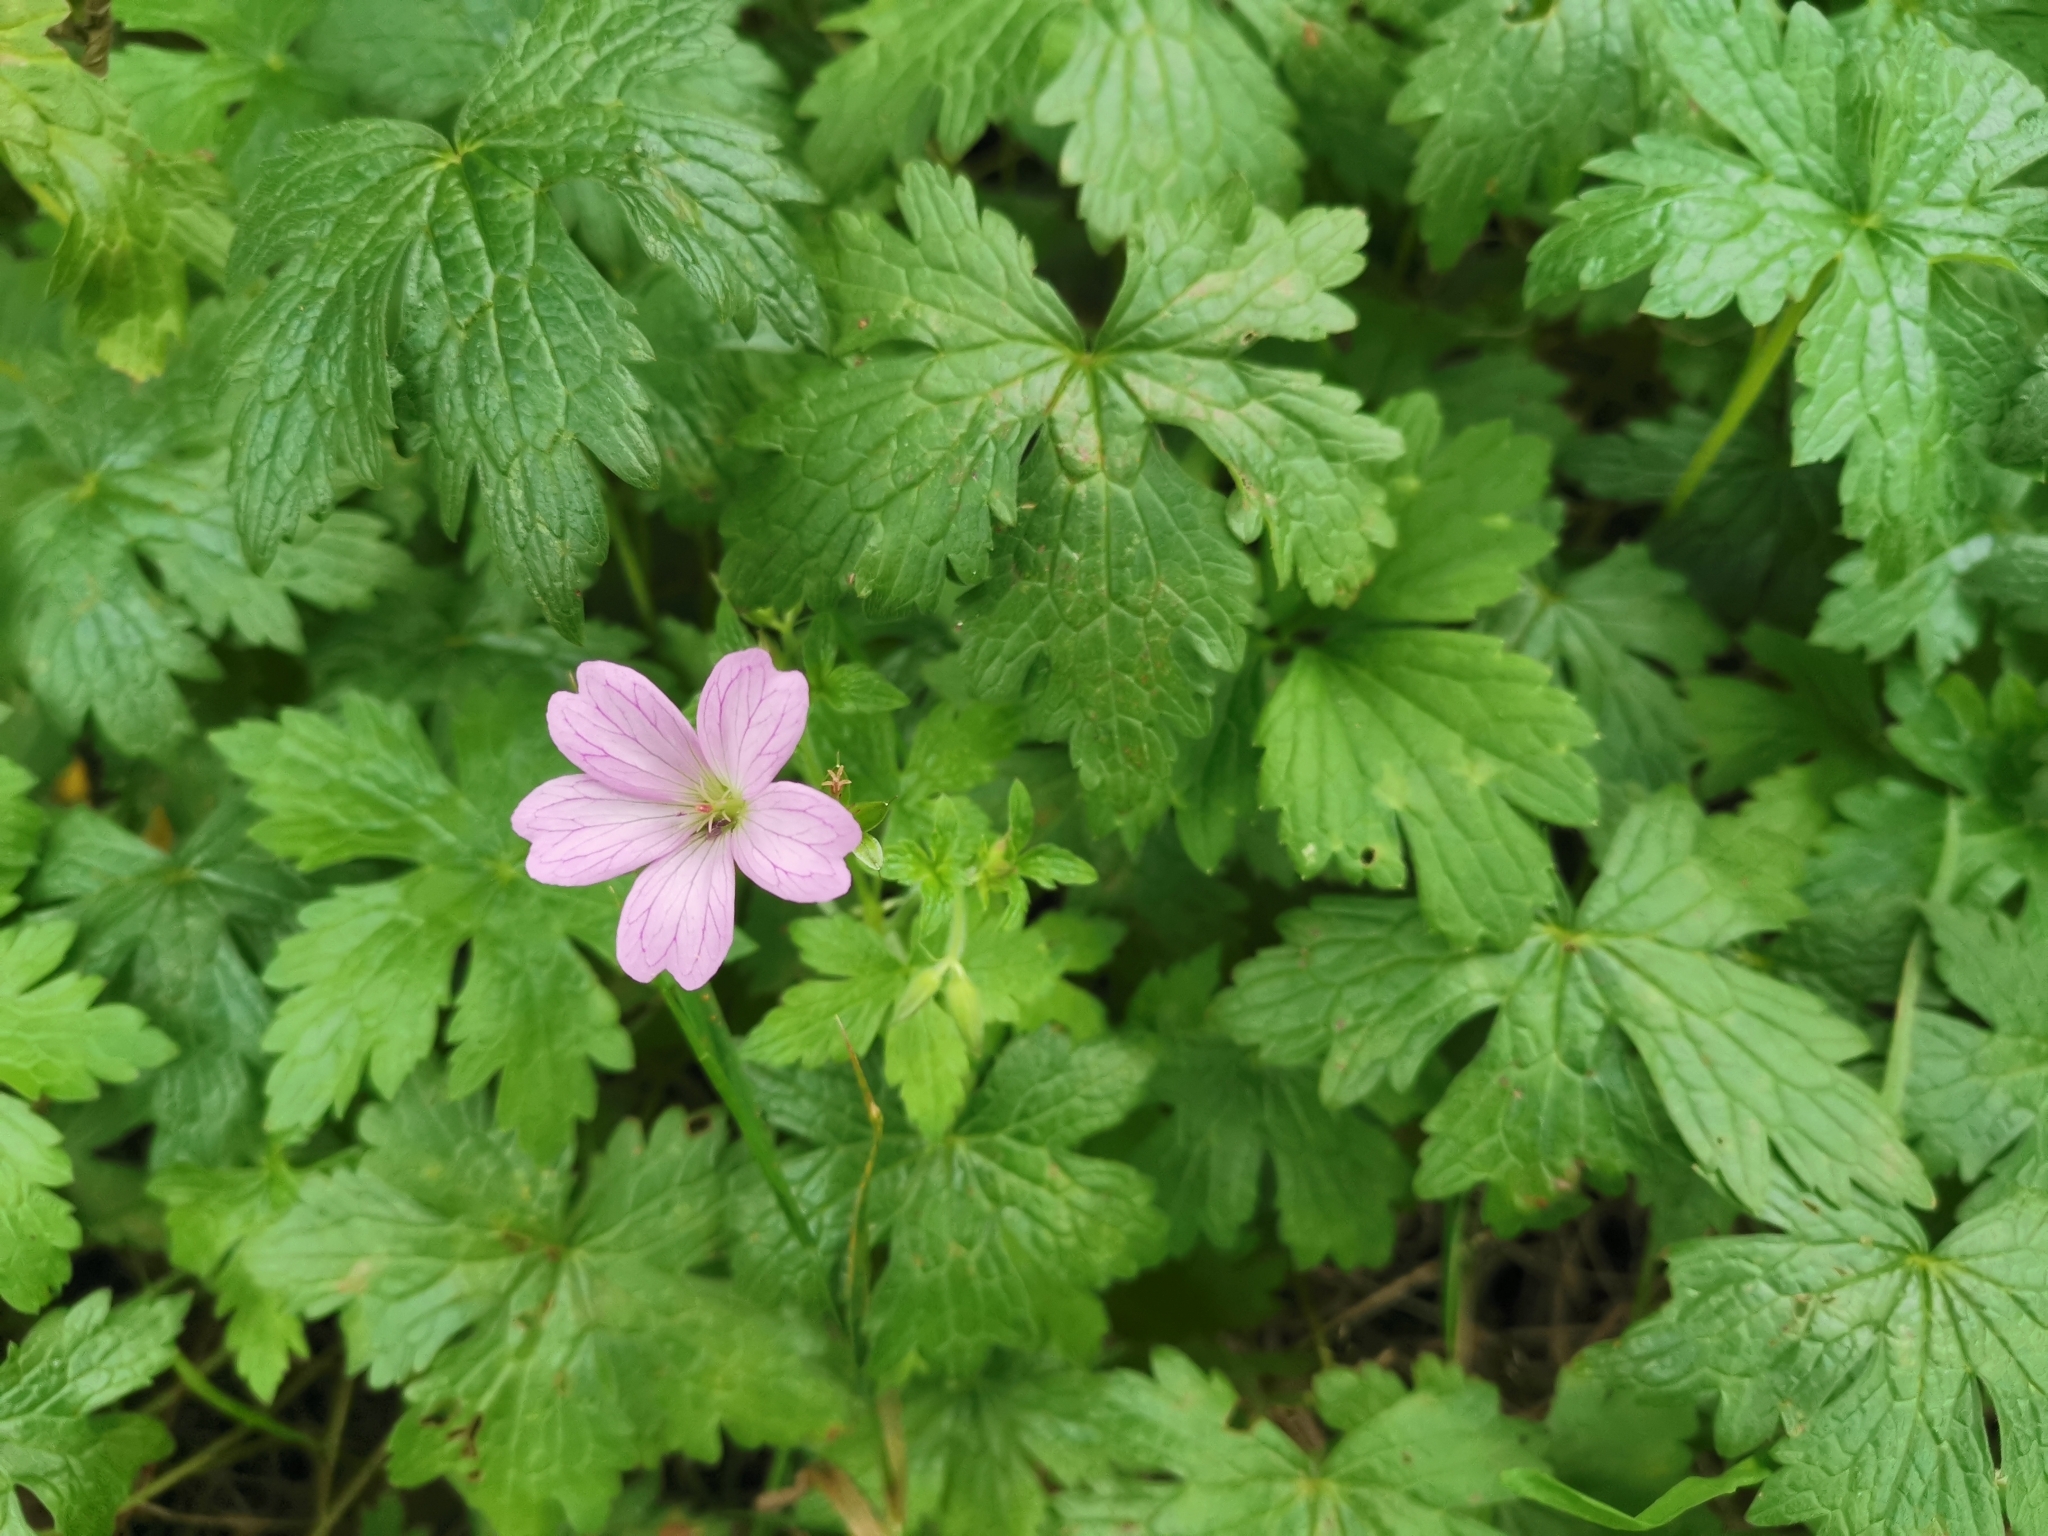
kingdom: Plantae
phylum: Tracheophyta
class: Magnoliopsida
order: Geraniales
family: Geraniaceae
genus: Geranium
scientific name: Geranium oxonianum
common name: Druce's crane's-bill
